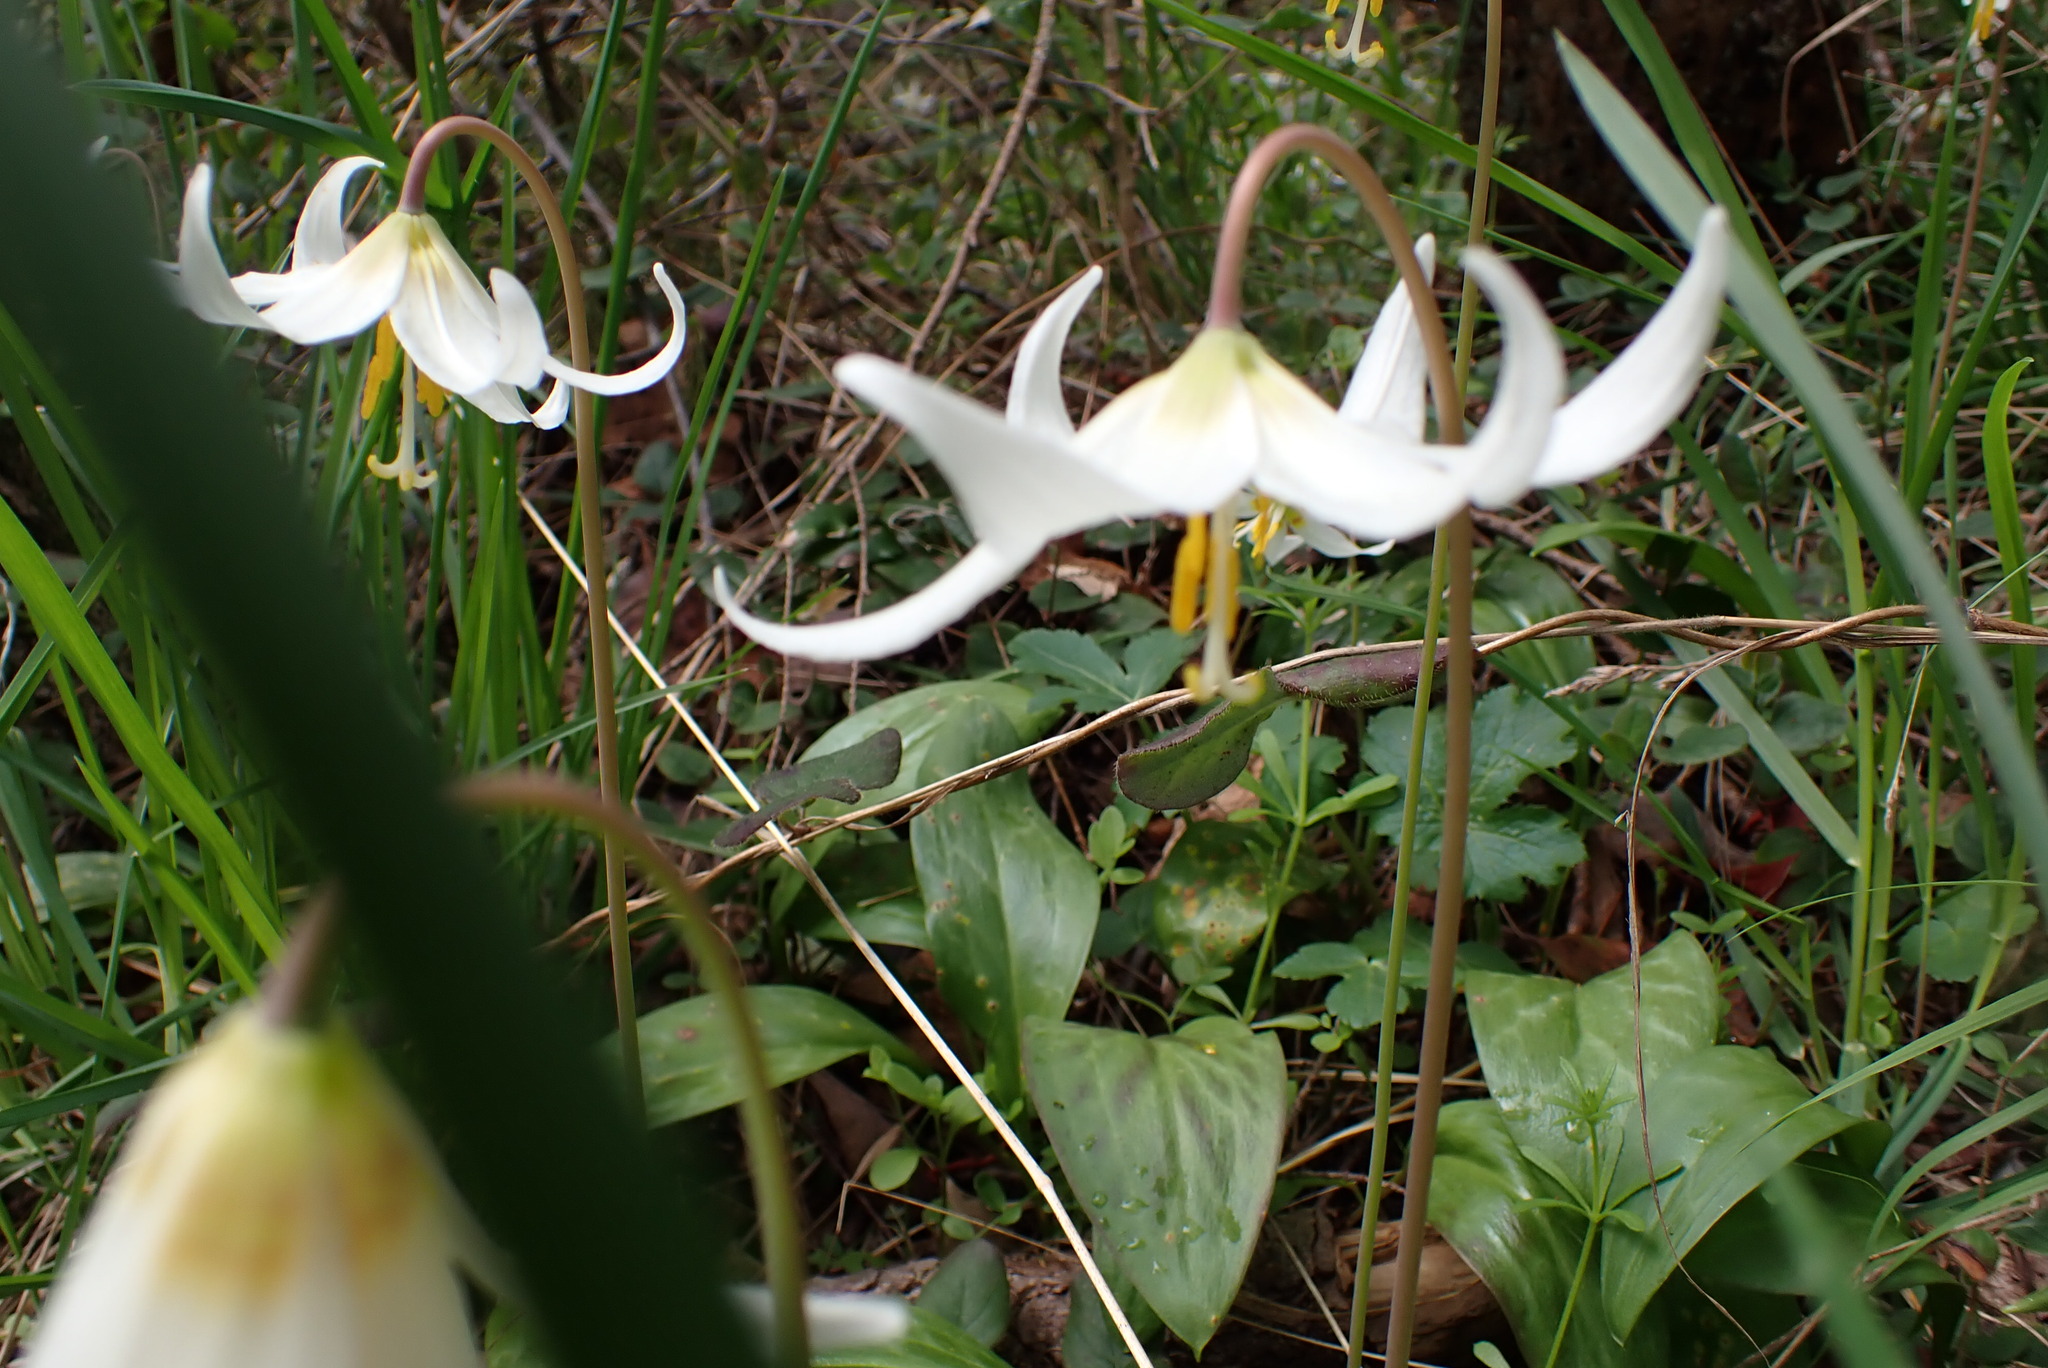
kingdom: Plantae
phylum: Tracheophyta
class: Liliopsida
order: Liliales
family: Liliaceae
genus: Erythronium
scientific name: Erythronium oregonum
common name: Giant adder's-tongue
